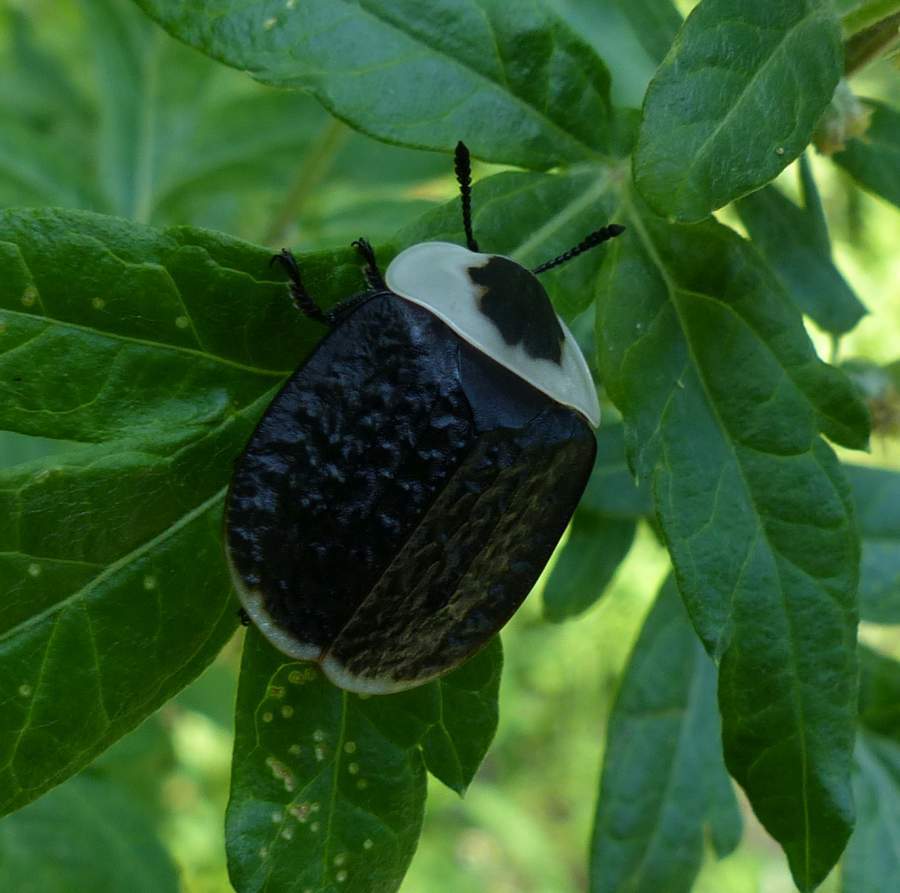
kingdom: Animalia
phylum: Arthropoda
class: Insecta
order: Coleoptera
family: Staphylinidae
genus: Necrophila
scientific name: Necrophila americana
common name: American carrion beetle
